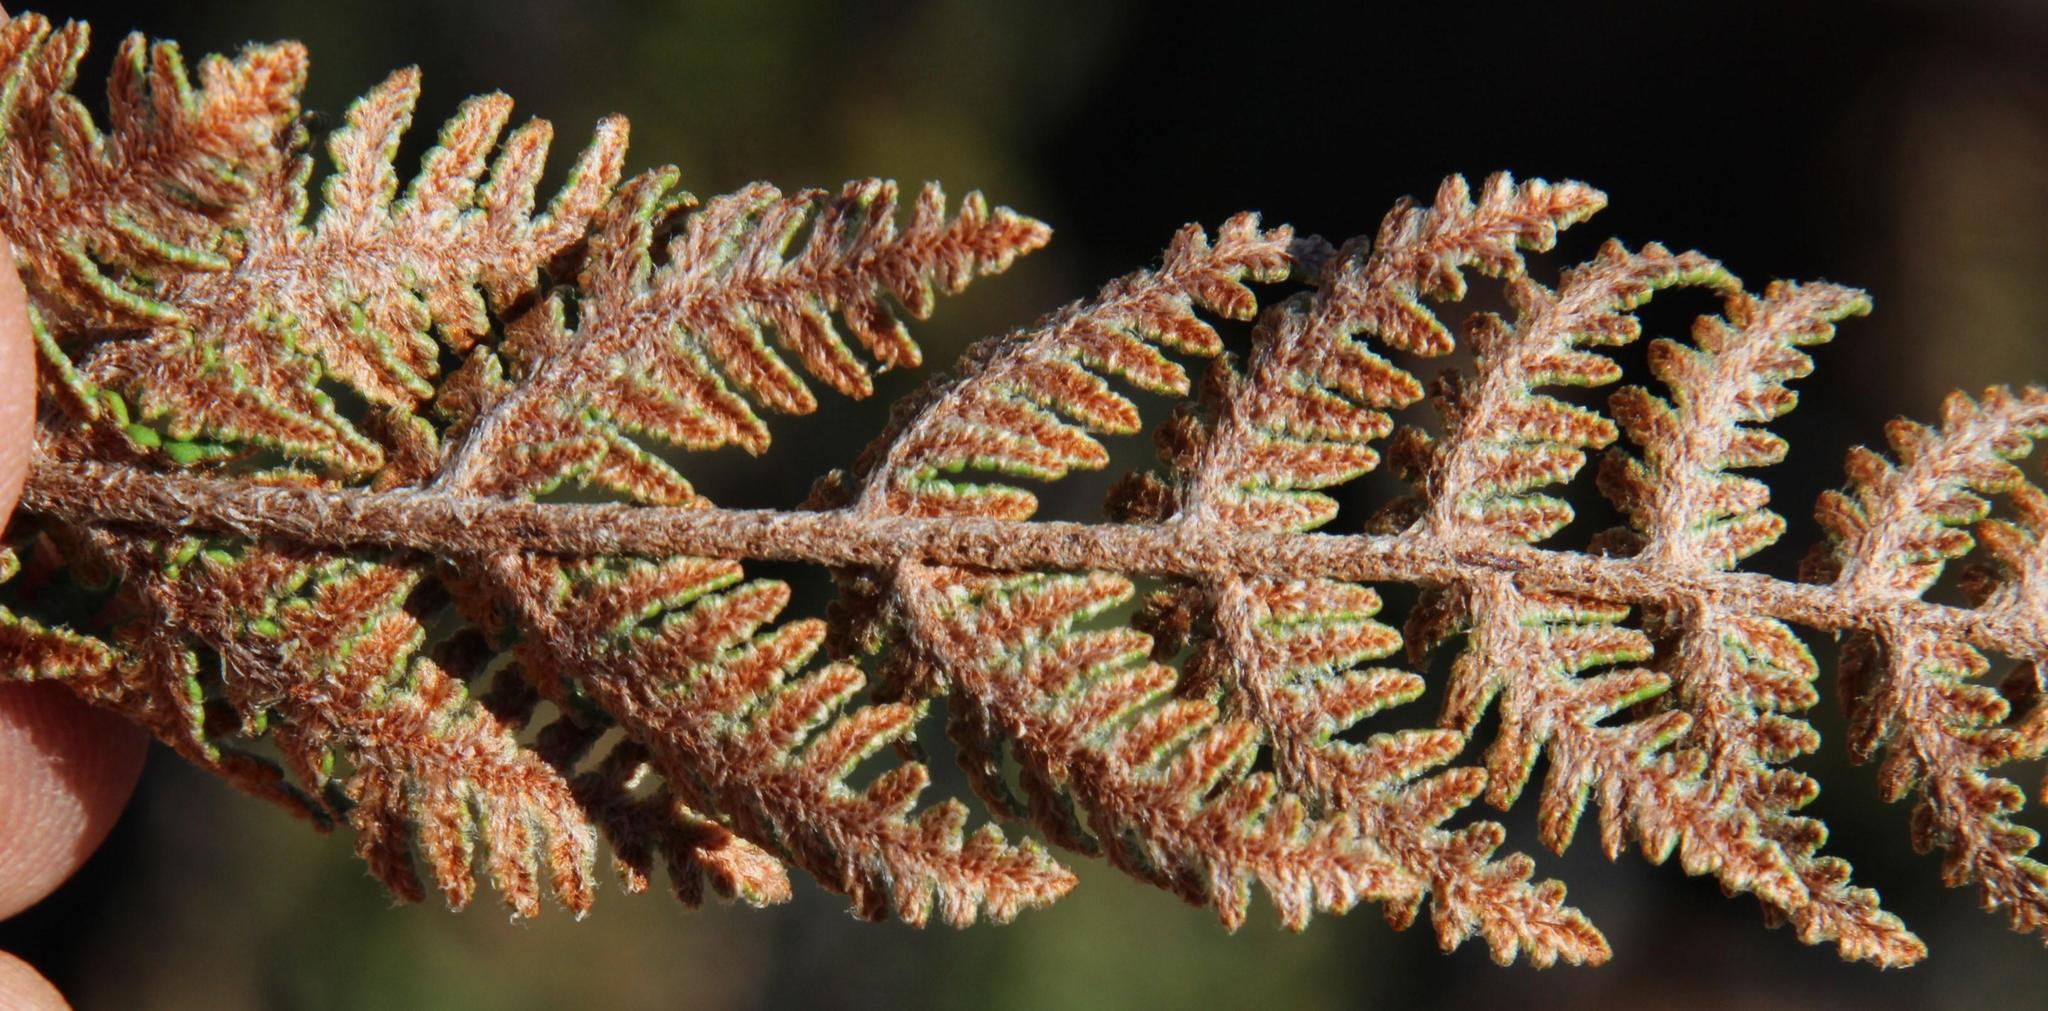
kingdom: Plantae
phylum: Tracheophyta
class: Polypodiopsida
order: Polypodiales
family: Pteridaceae
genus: Cheilanthes
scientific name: Cheilanthes eckloniana
